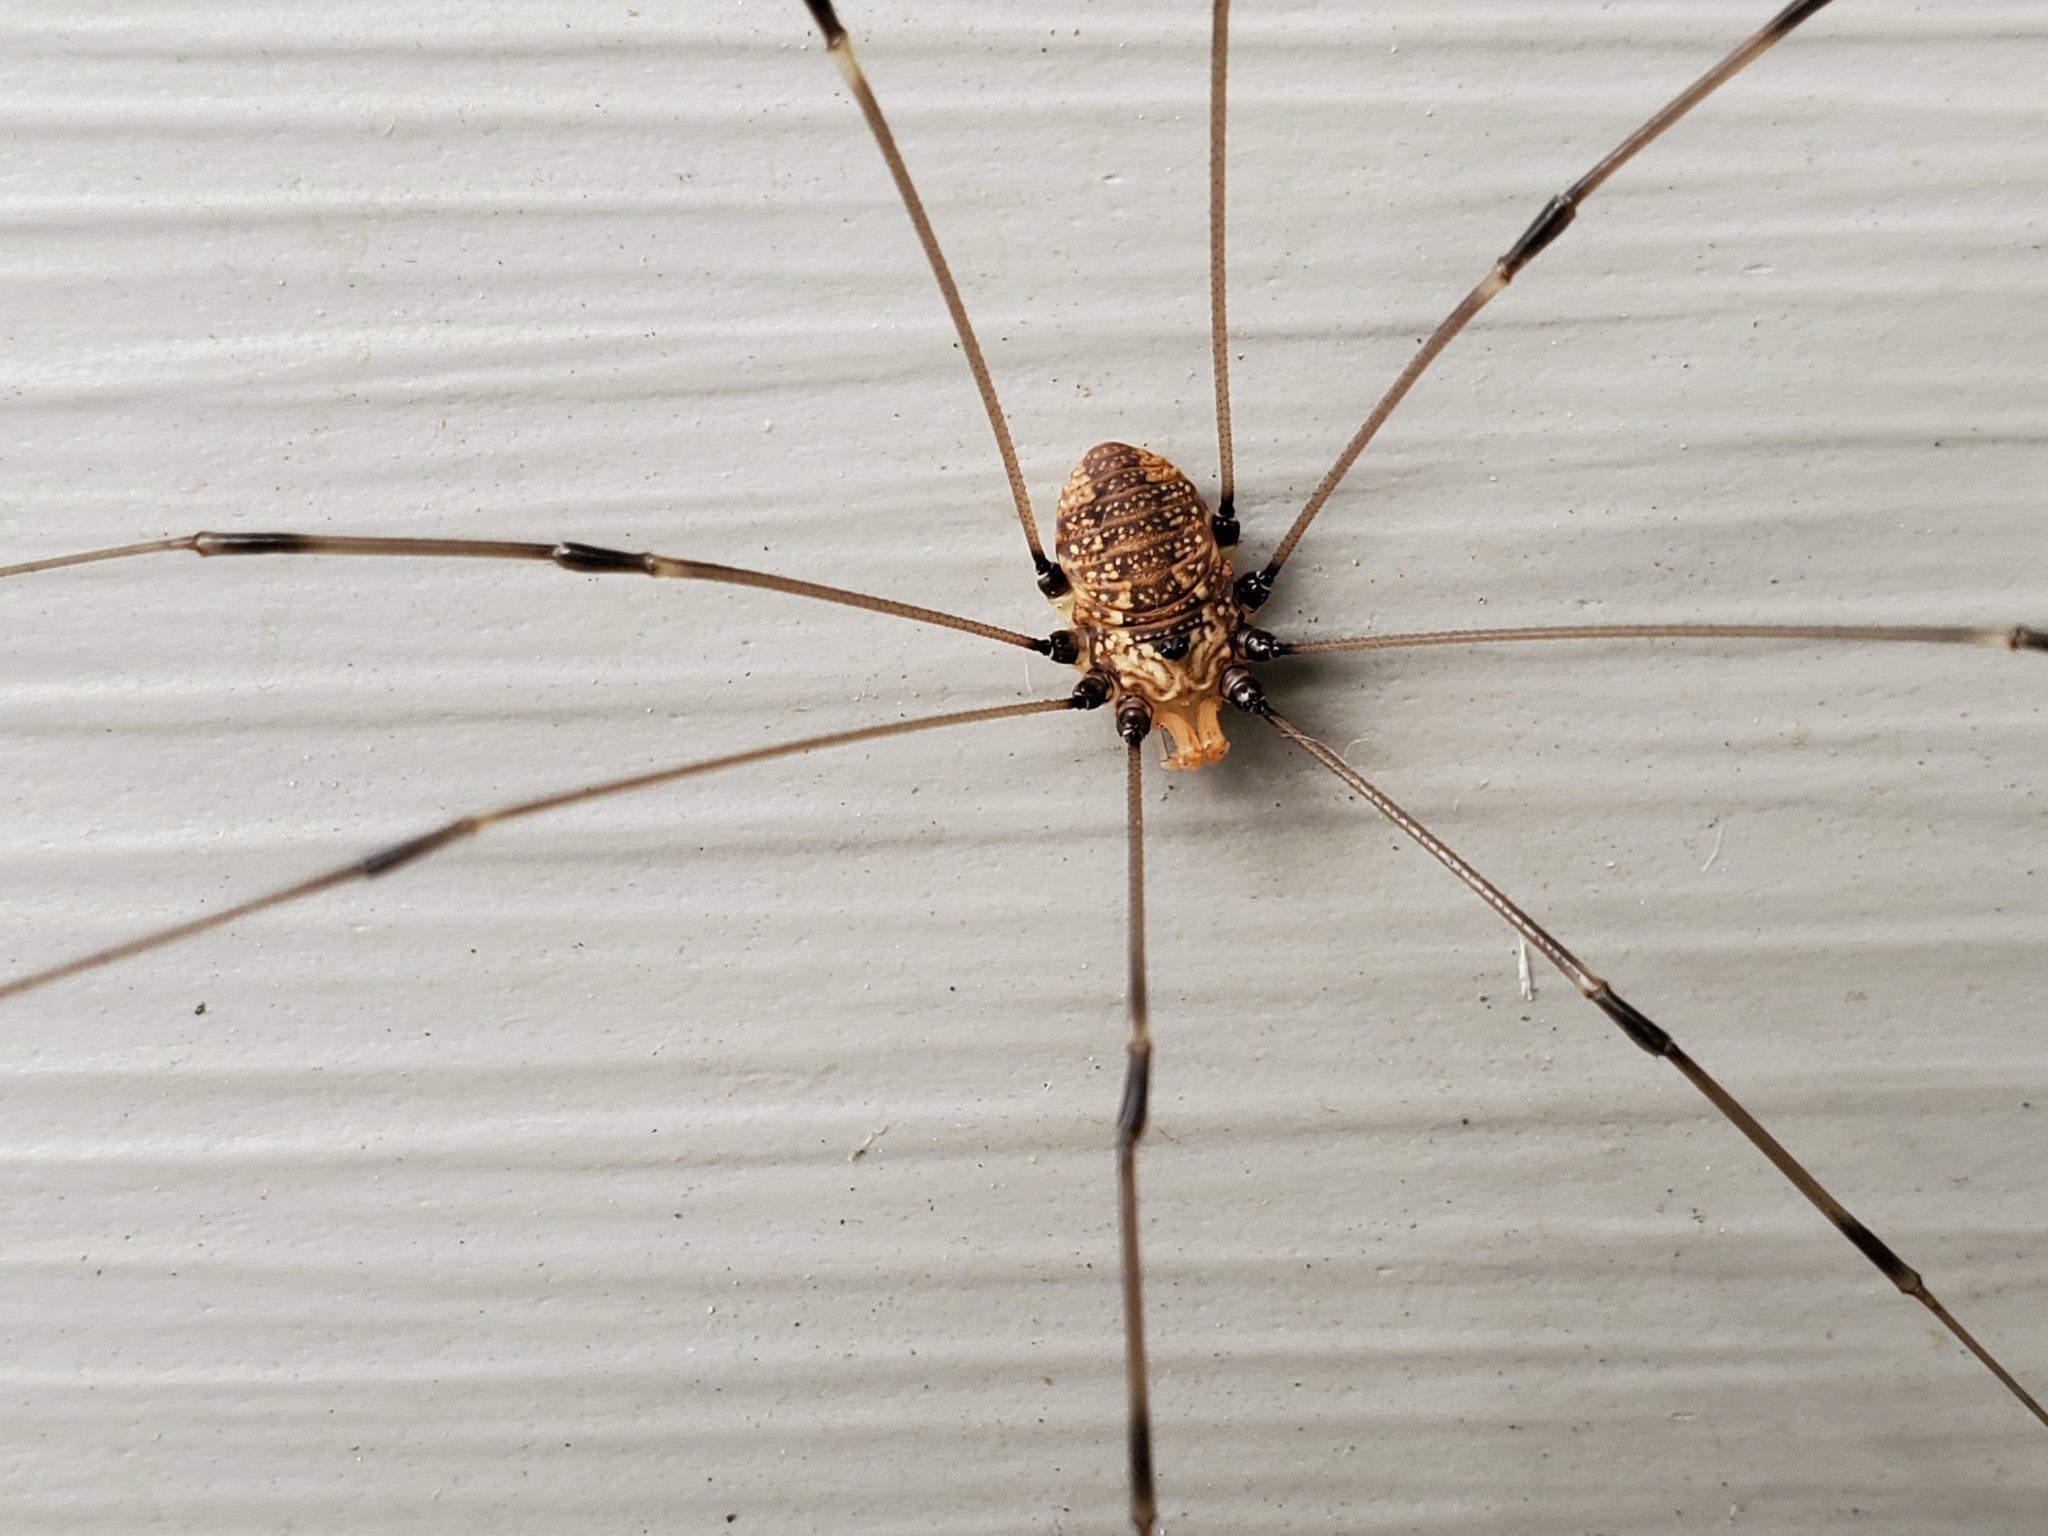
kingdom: Animalia
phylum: Arthropoda
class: Arachnida
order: Opiliones
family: Sclerosomatidae
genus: Leiobunum
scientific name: Leiobunum vittatum
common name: Eastern harvestman
